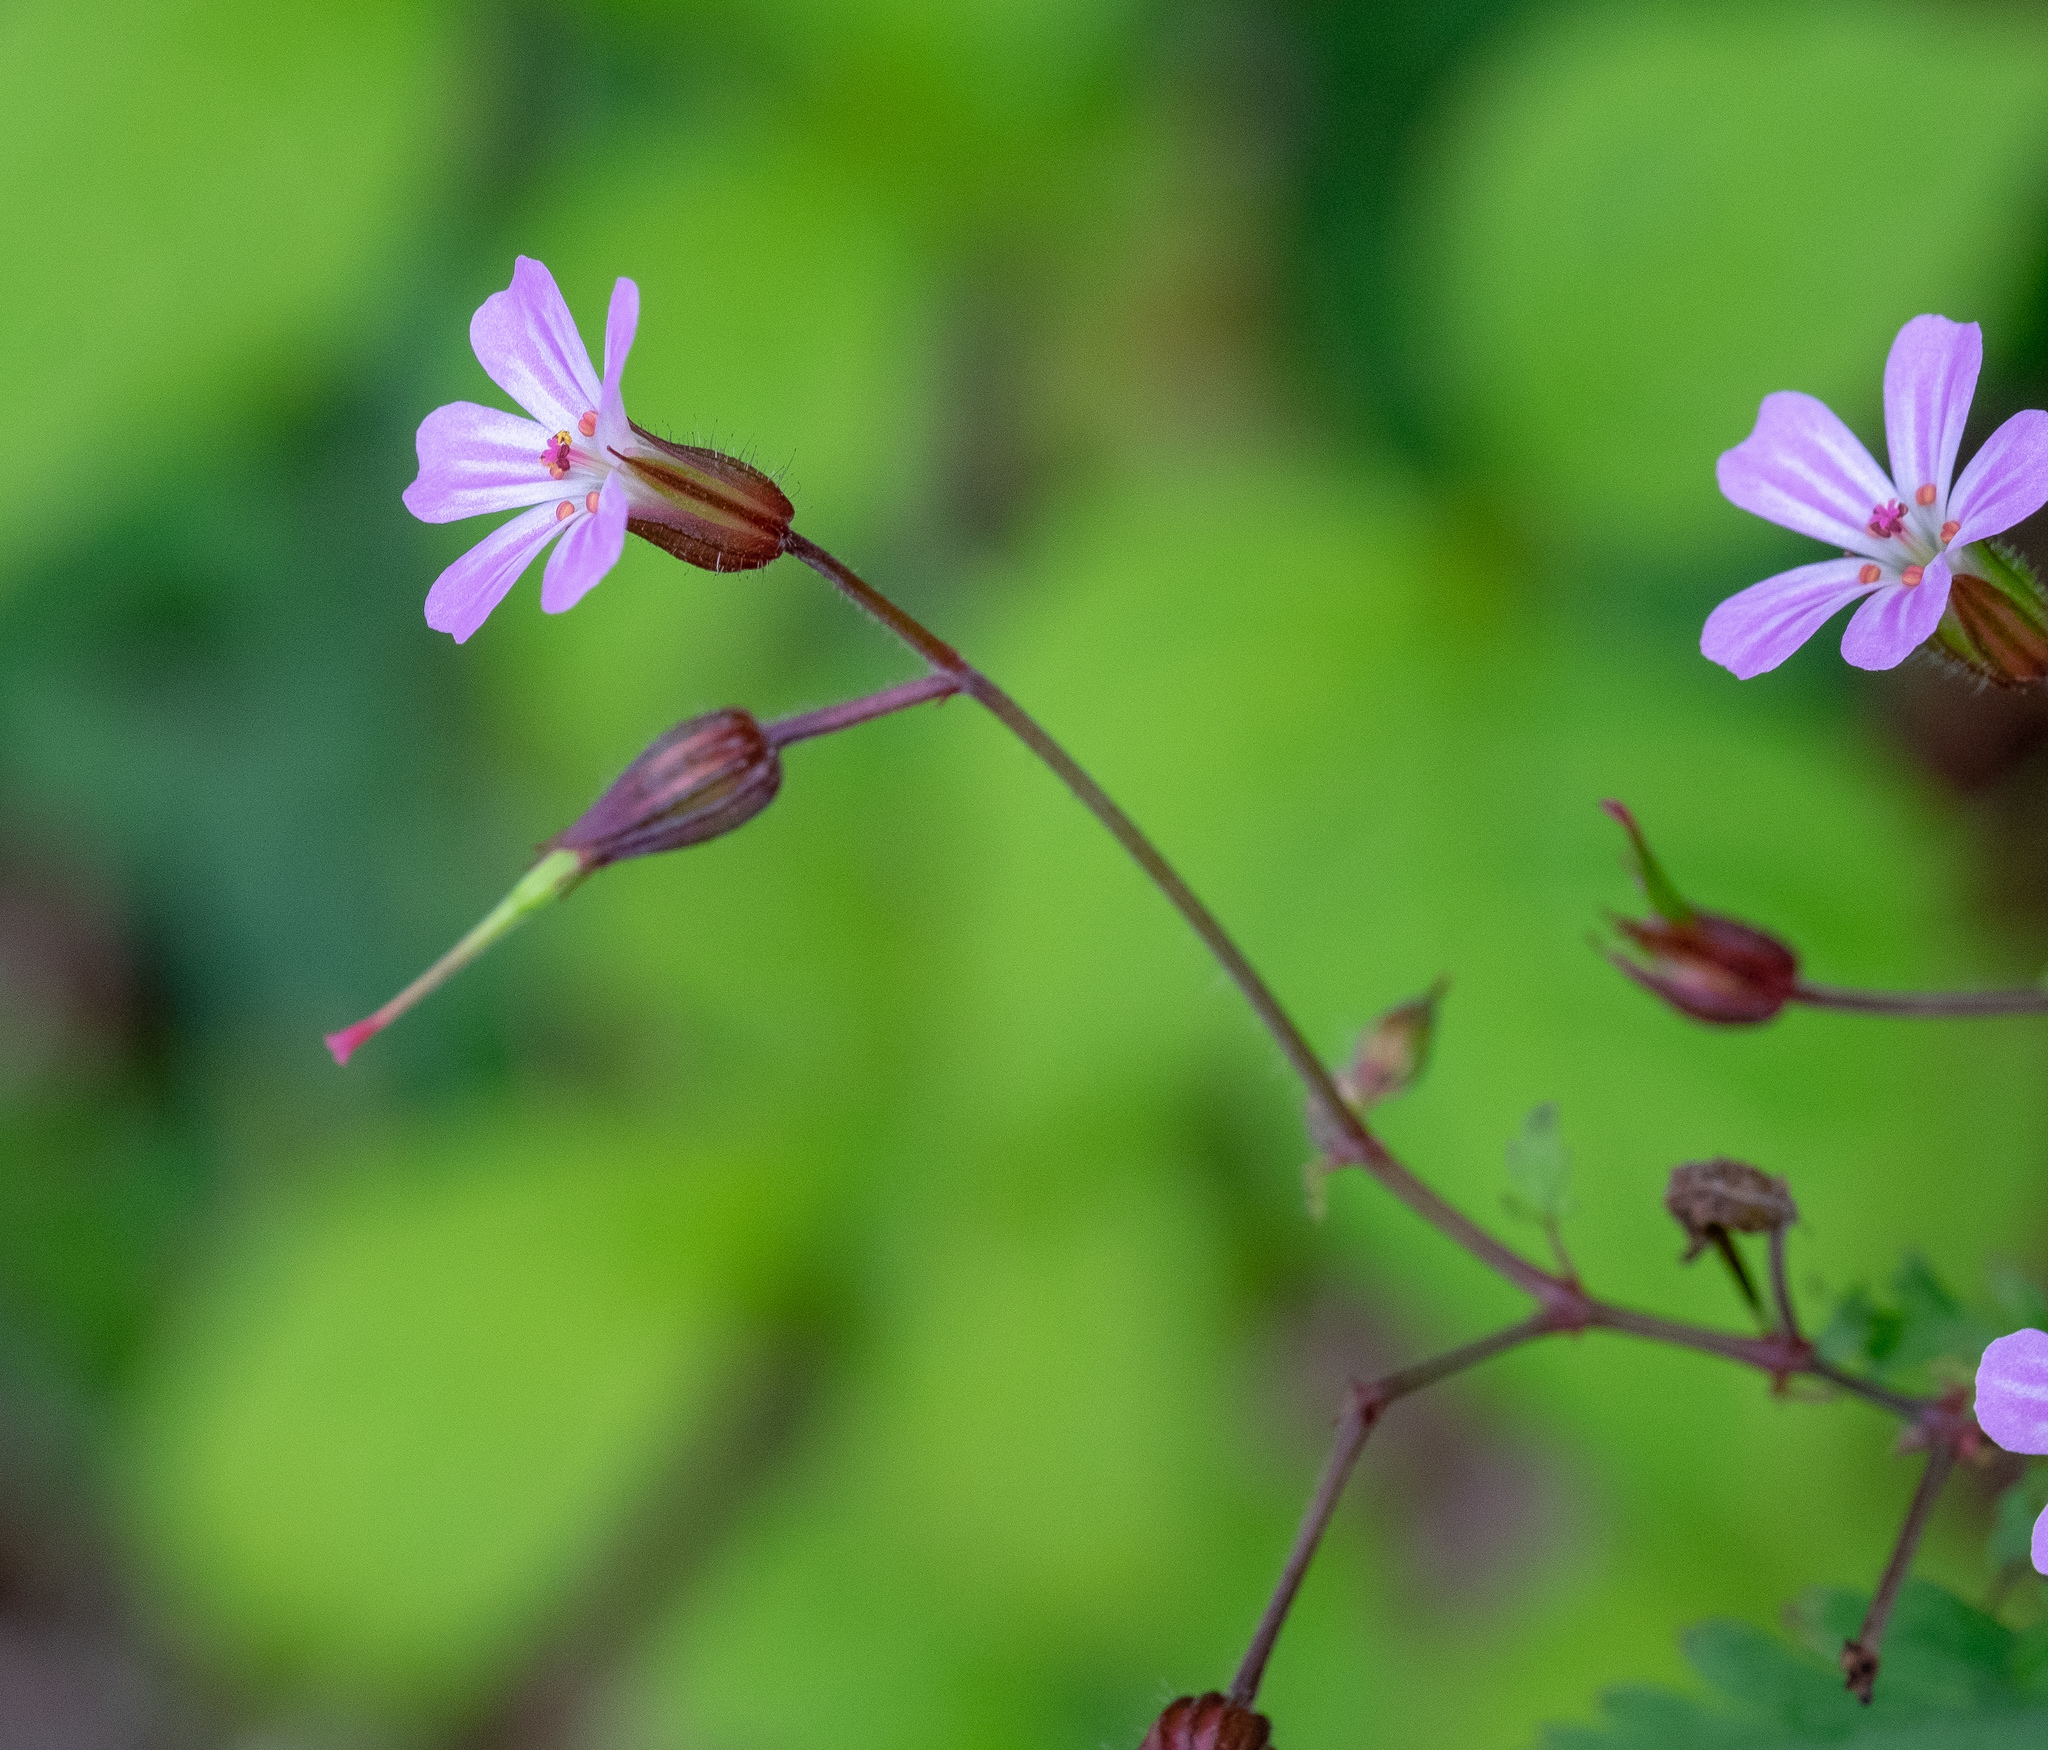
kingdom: Plantae
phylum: Tracheophyta
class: Magnoliopsida
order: Geraniales
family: Geraniaceae
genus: Geranium
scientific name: Geranium robertianum
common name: Herb-robert
